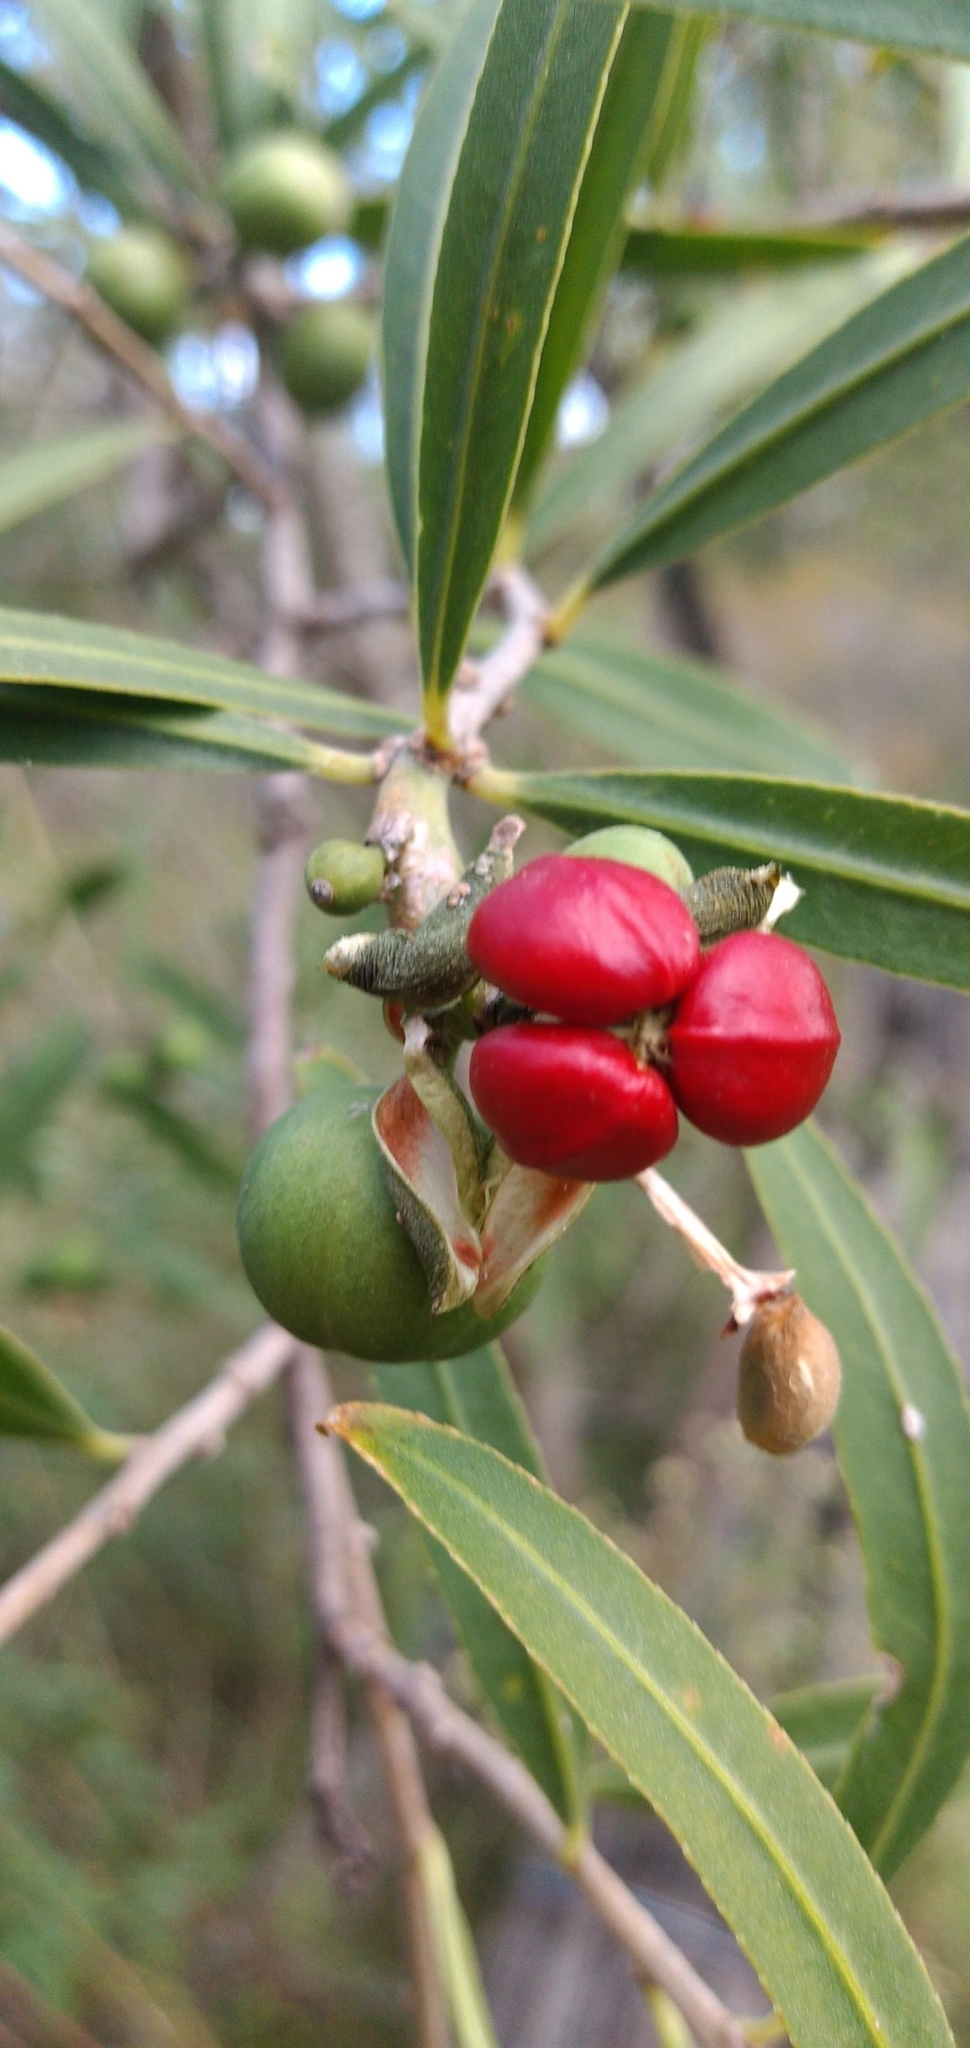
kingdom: Plantae
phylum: Tracheophyta
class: Magnoliopsida
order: Malpighiales
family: Euphorbiaceae
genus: Sapium
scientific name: Sapium haematospermum
